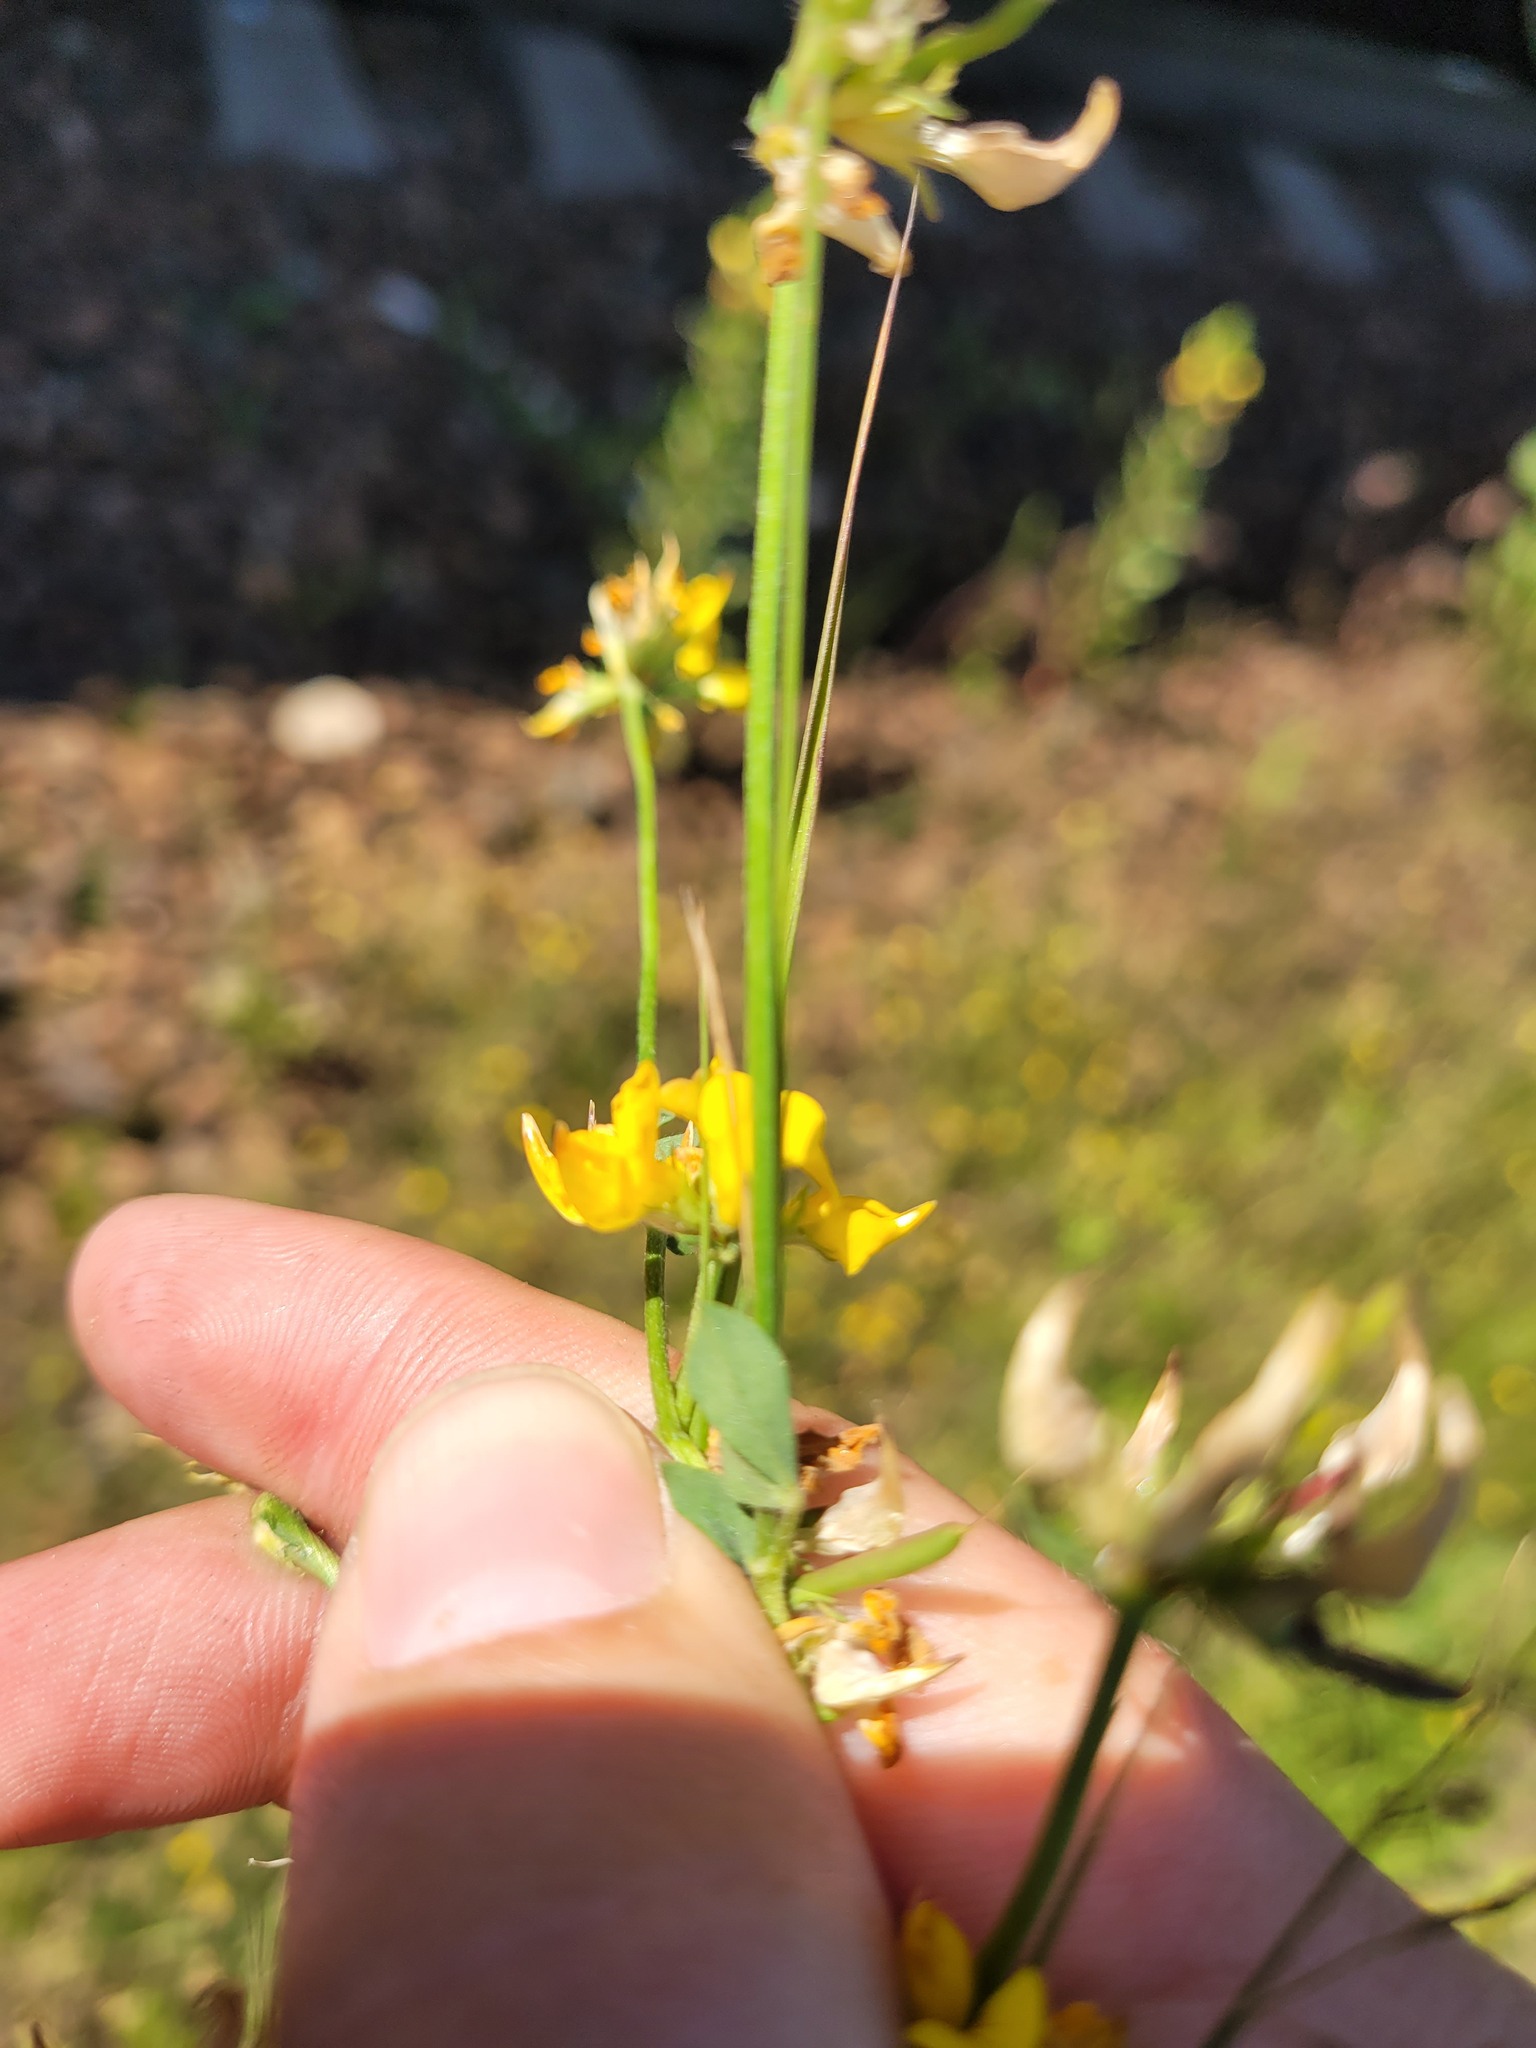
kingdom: Plantae
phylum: Tracheophyta
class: Magnoliopsida
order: Fabales
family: Fabaceae
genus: Lotus
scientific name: Lotus corniculatus
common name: Common bird's-foot-trefoil
